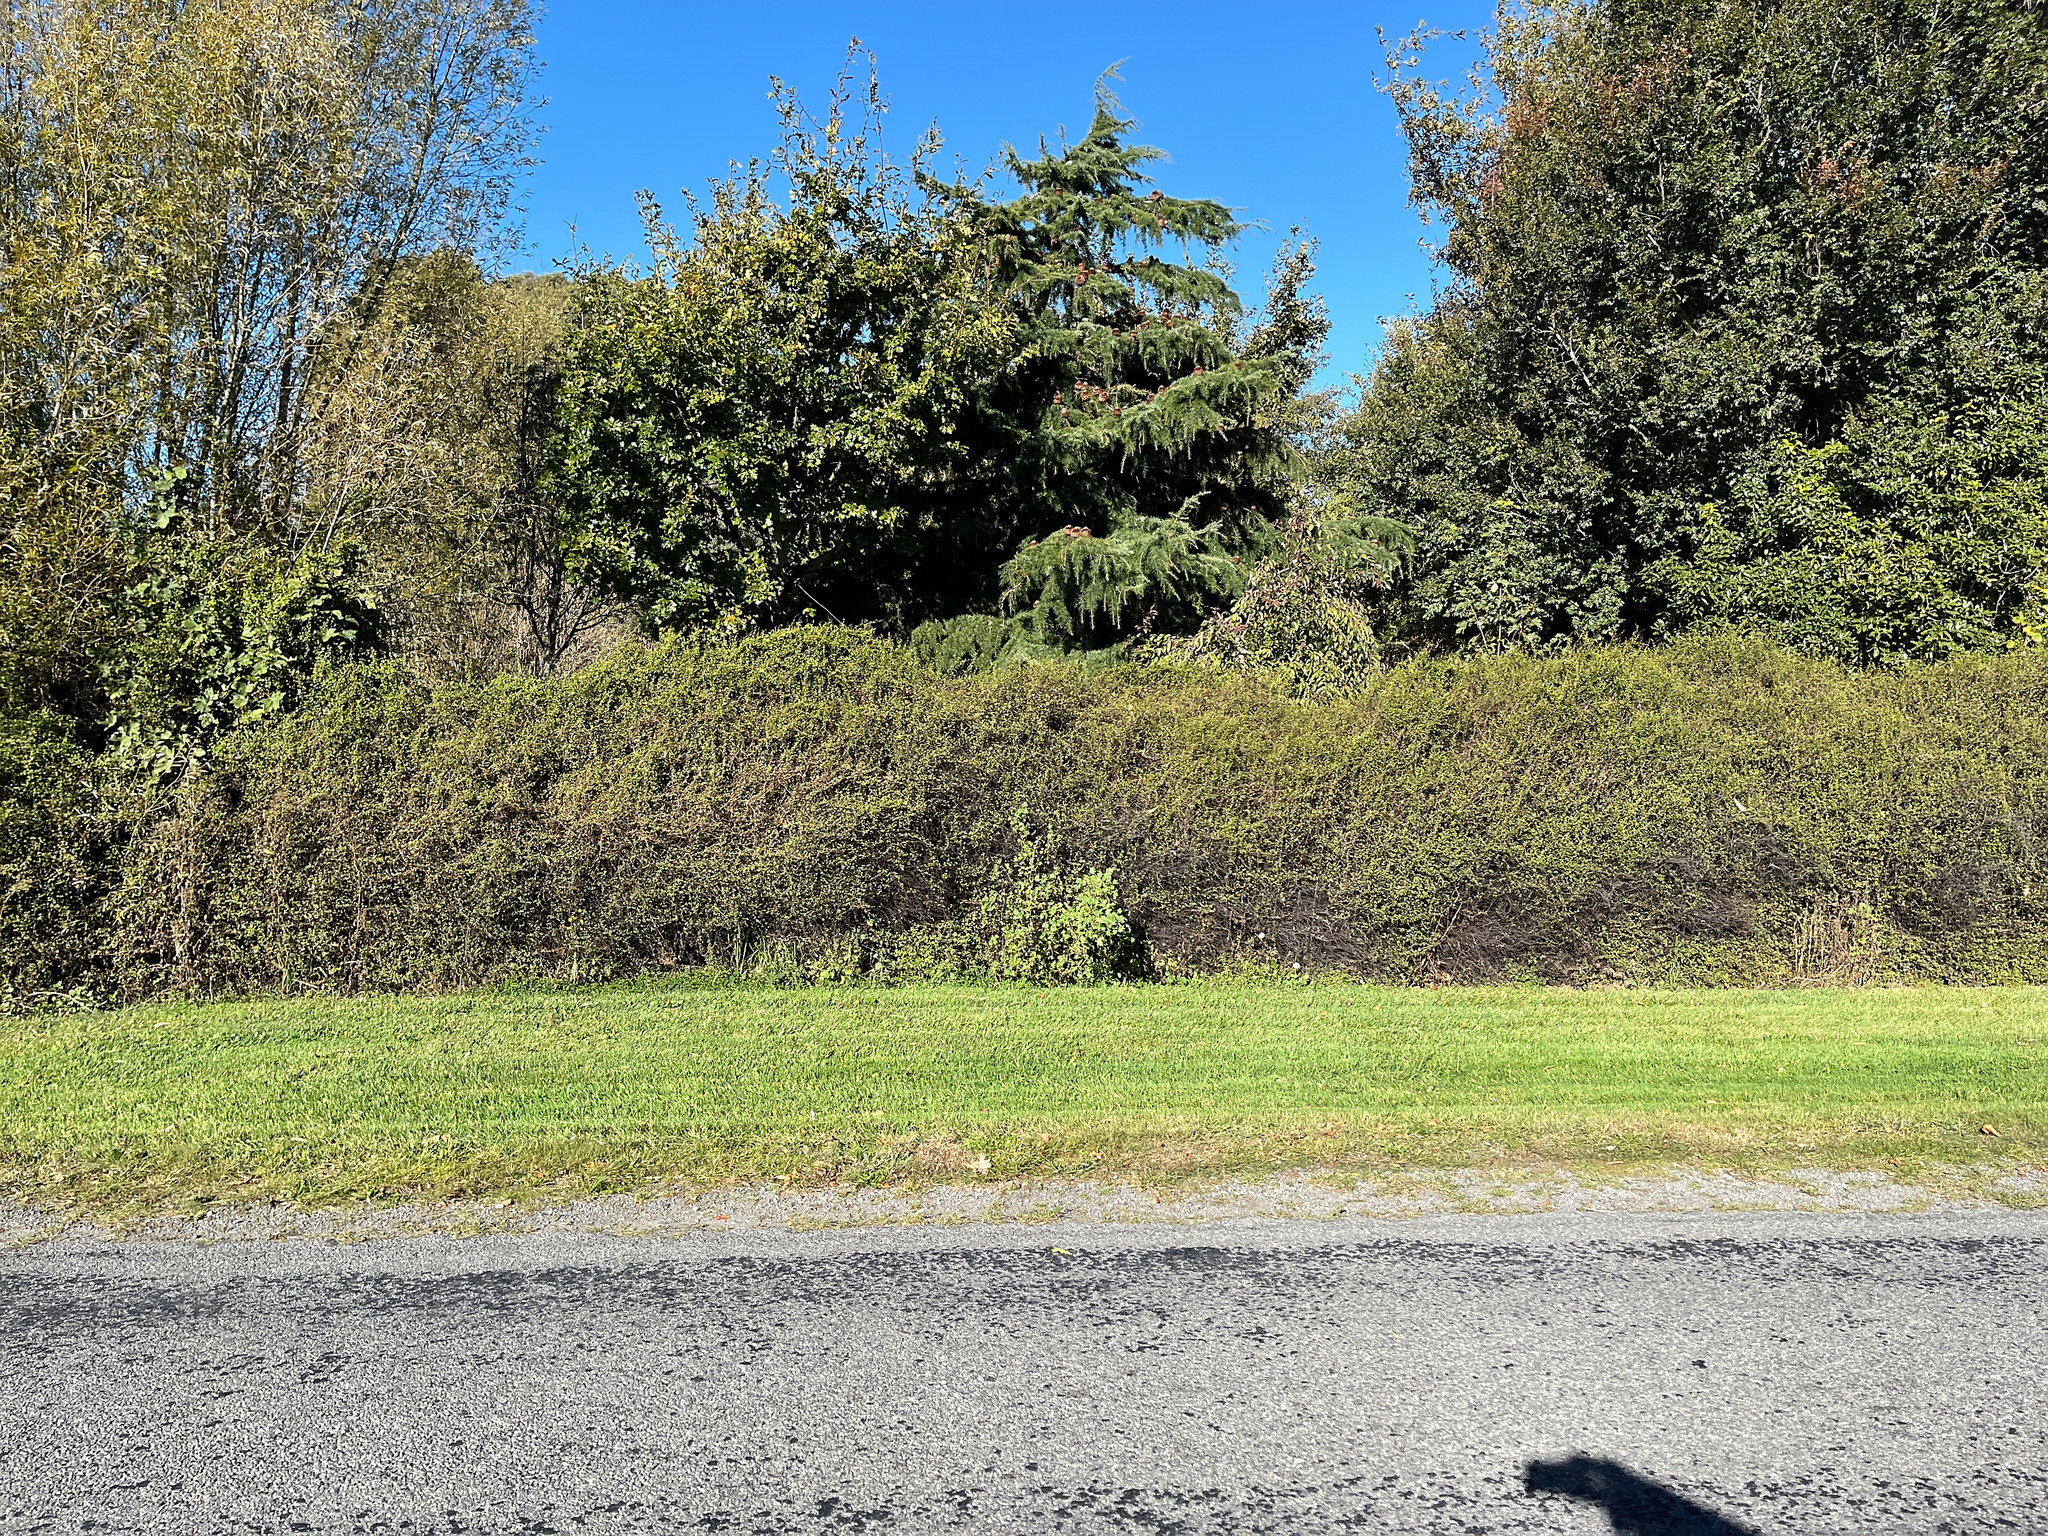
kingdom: Plantae
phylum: Tracheophyta
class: Magnoliopsida
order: Caryophyllales
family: Polygonaceae
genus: Muehlenbeckia
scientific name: Muehlenbeckia complexa
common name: Wireplant
